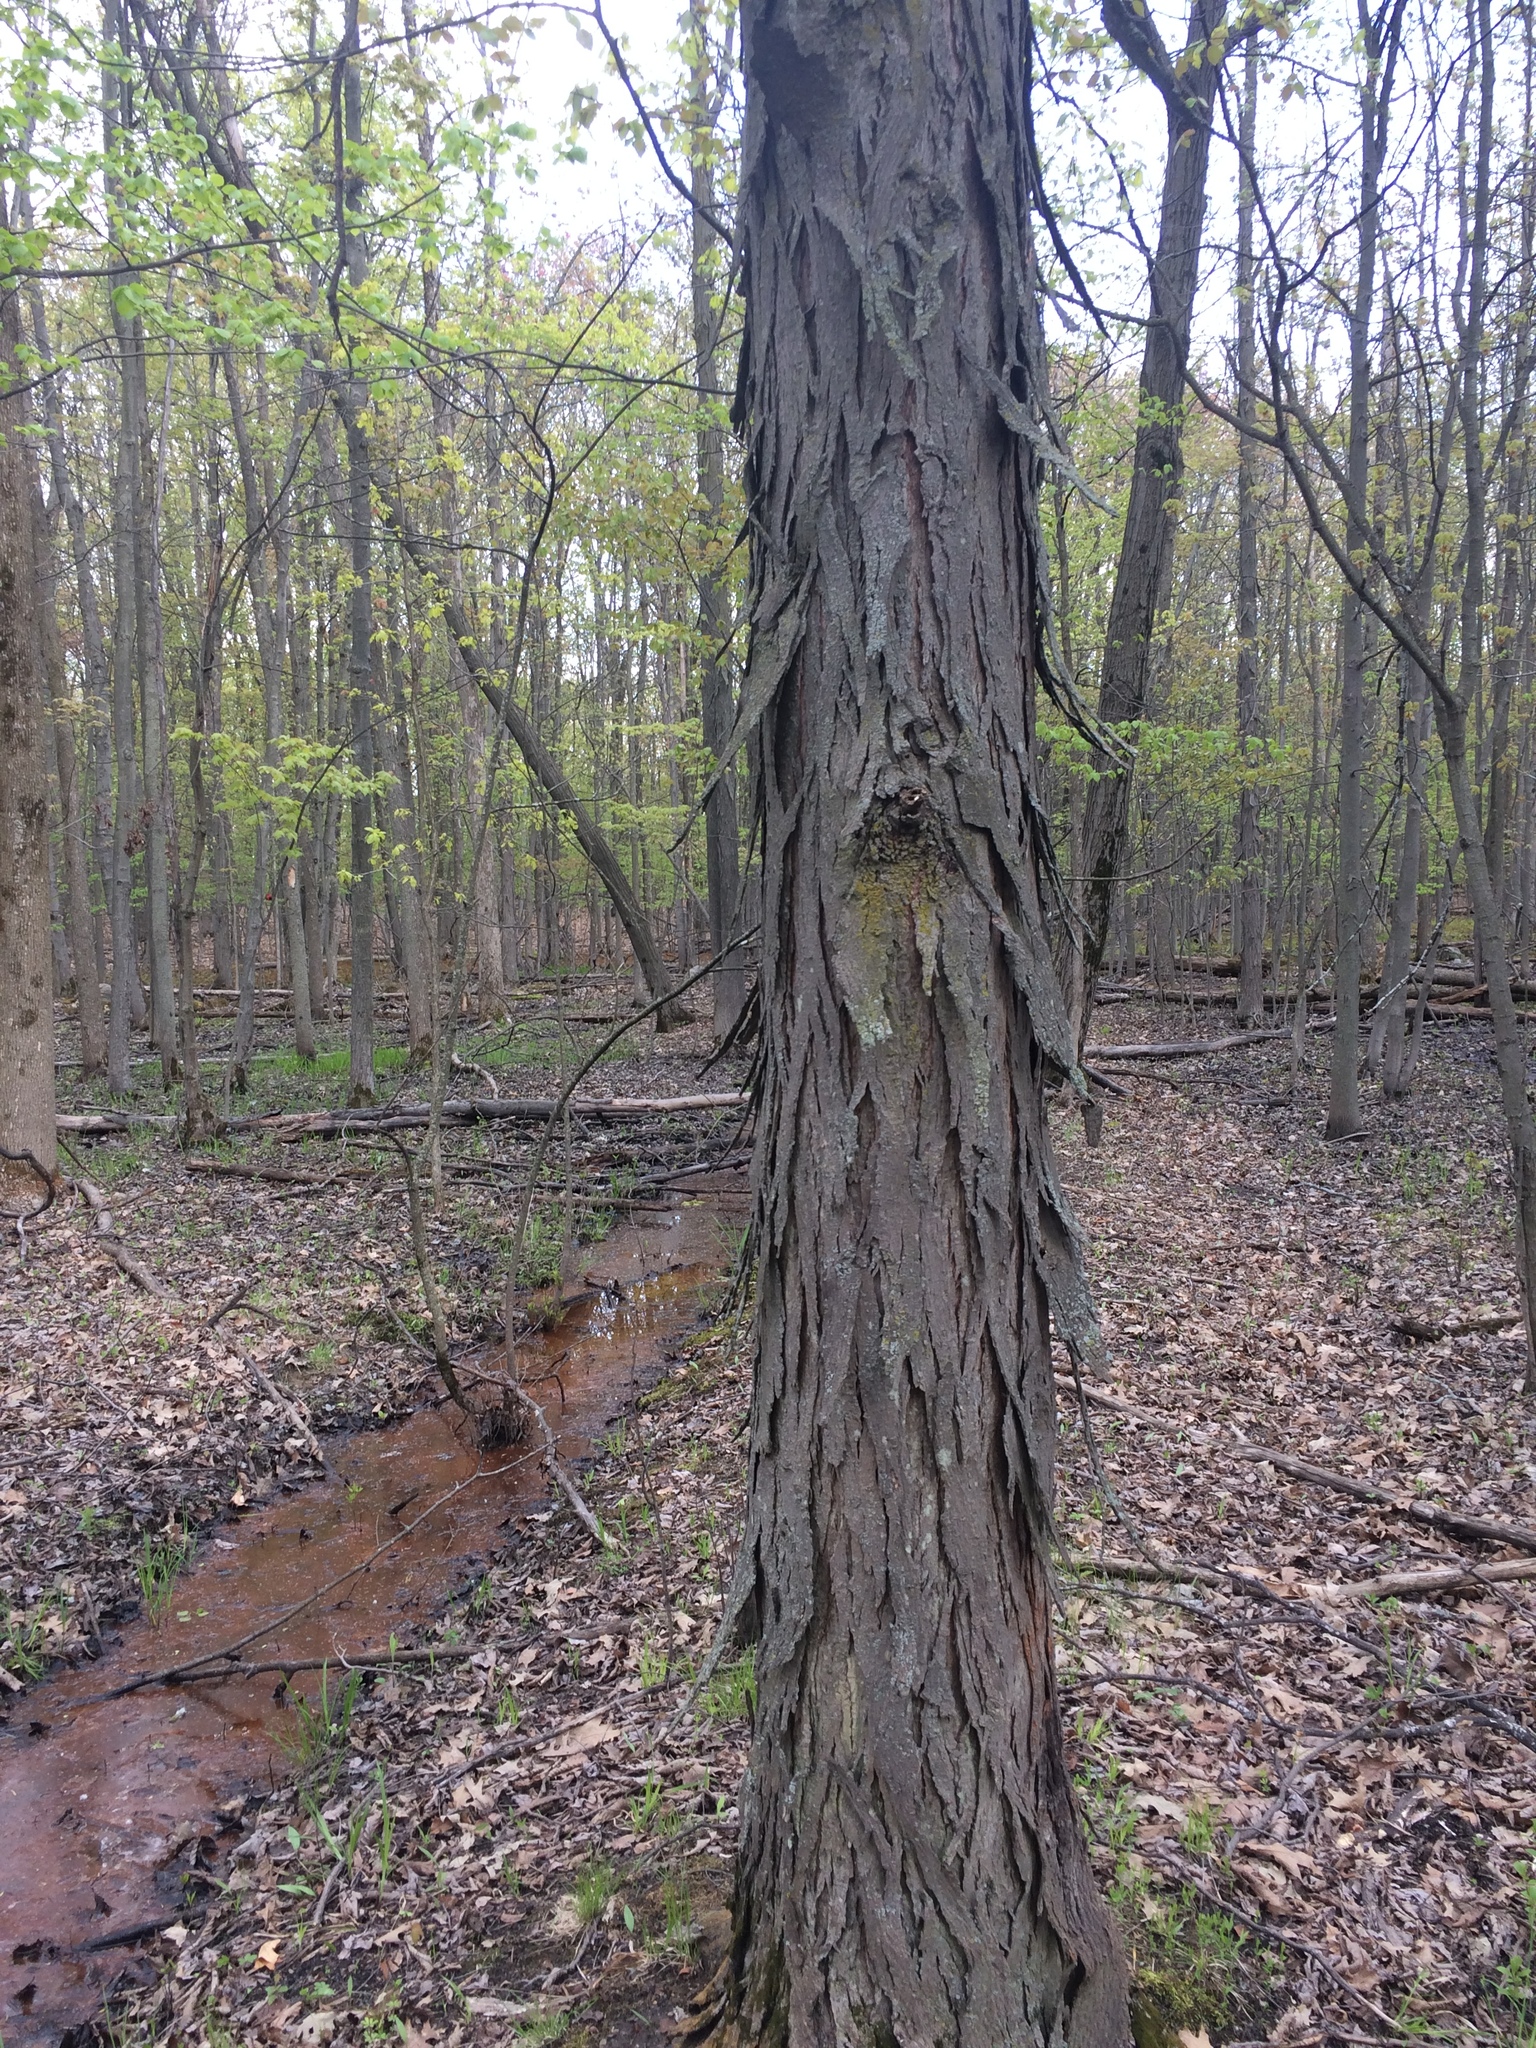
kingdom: Plantae
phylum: Tracheophyta
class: Magnoliopsida
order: Fagales
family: Juglandaceae
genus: Carya
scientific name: Carya ovata
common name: Shagbark hickory
